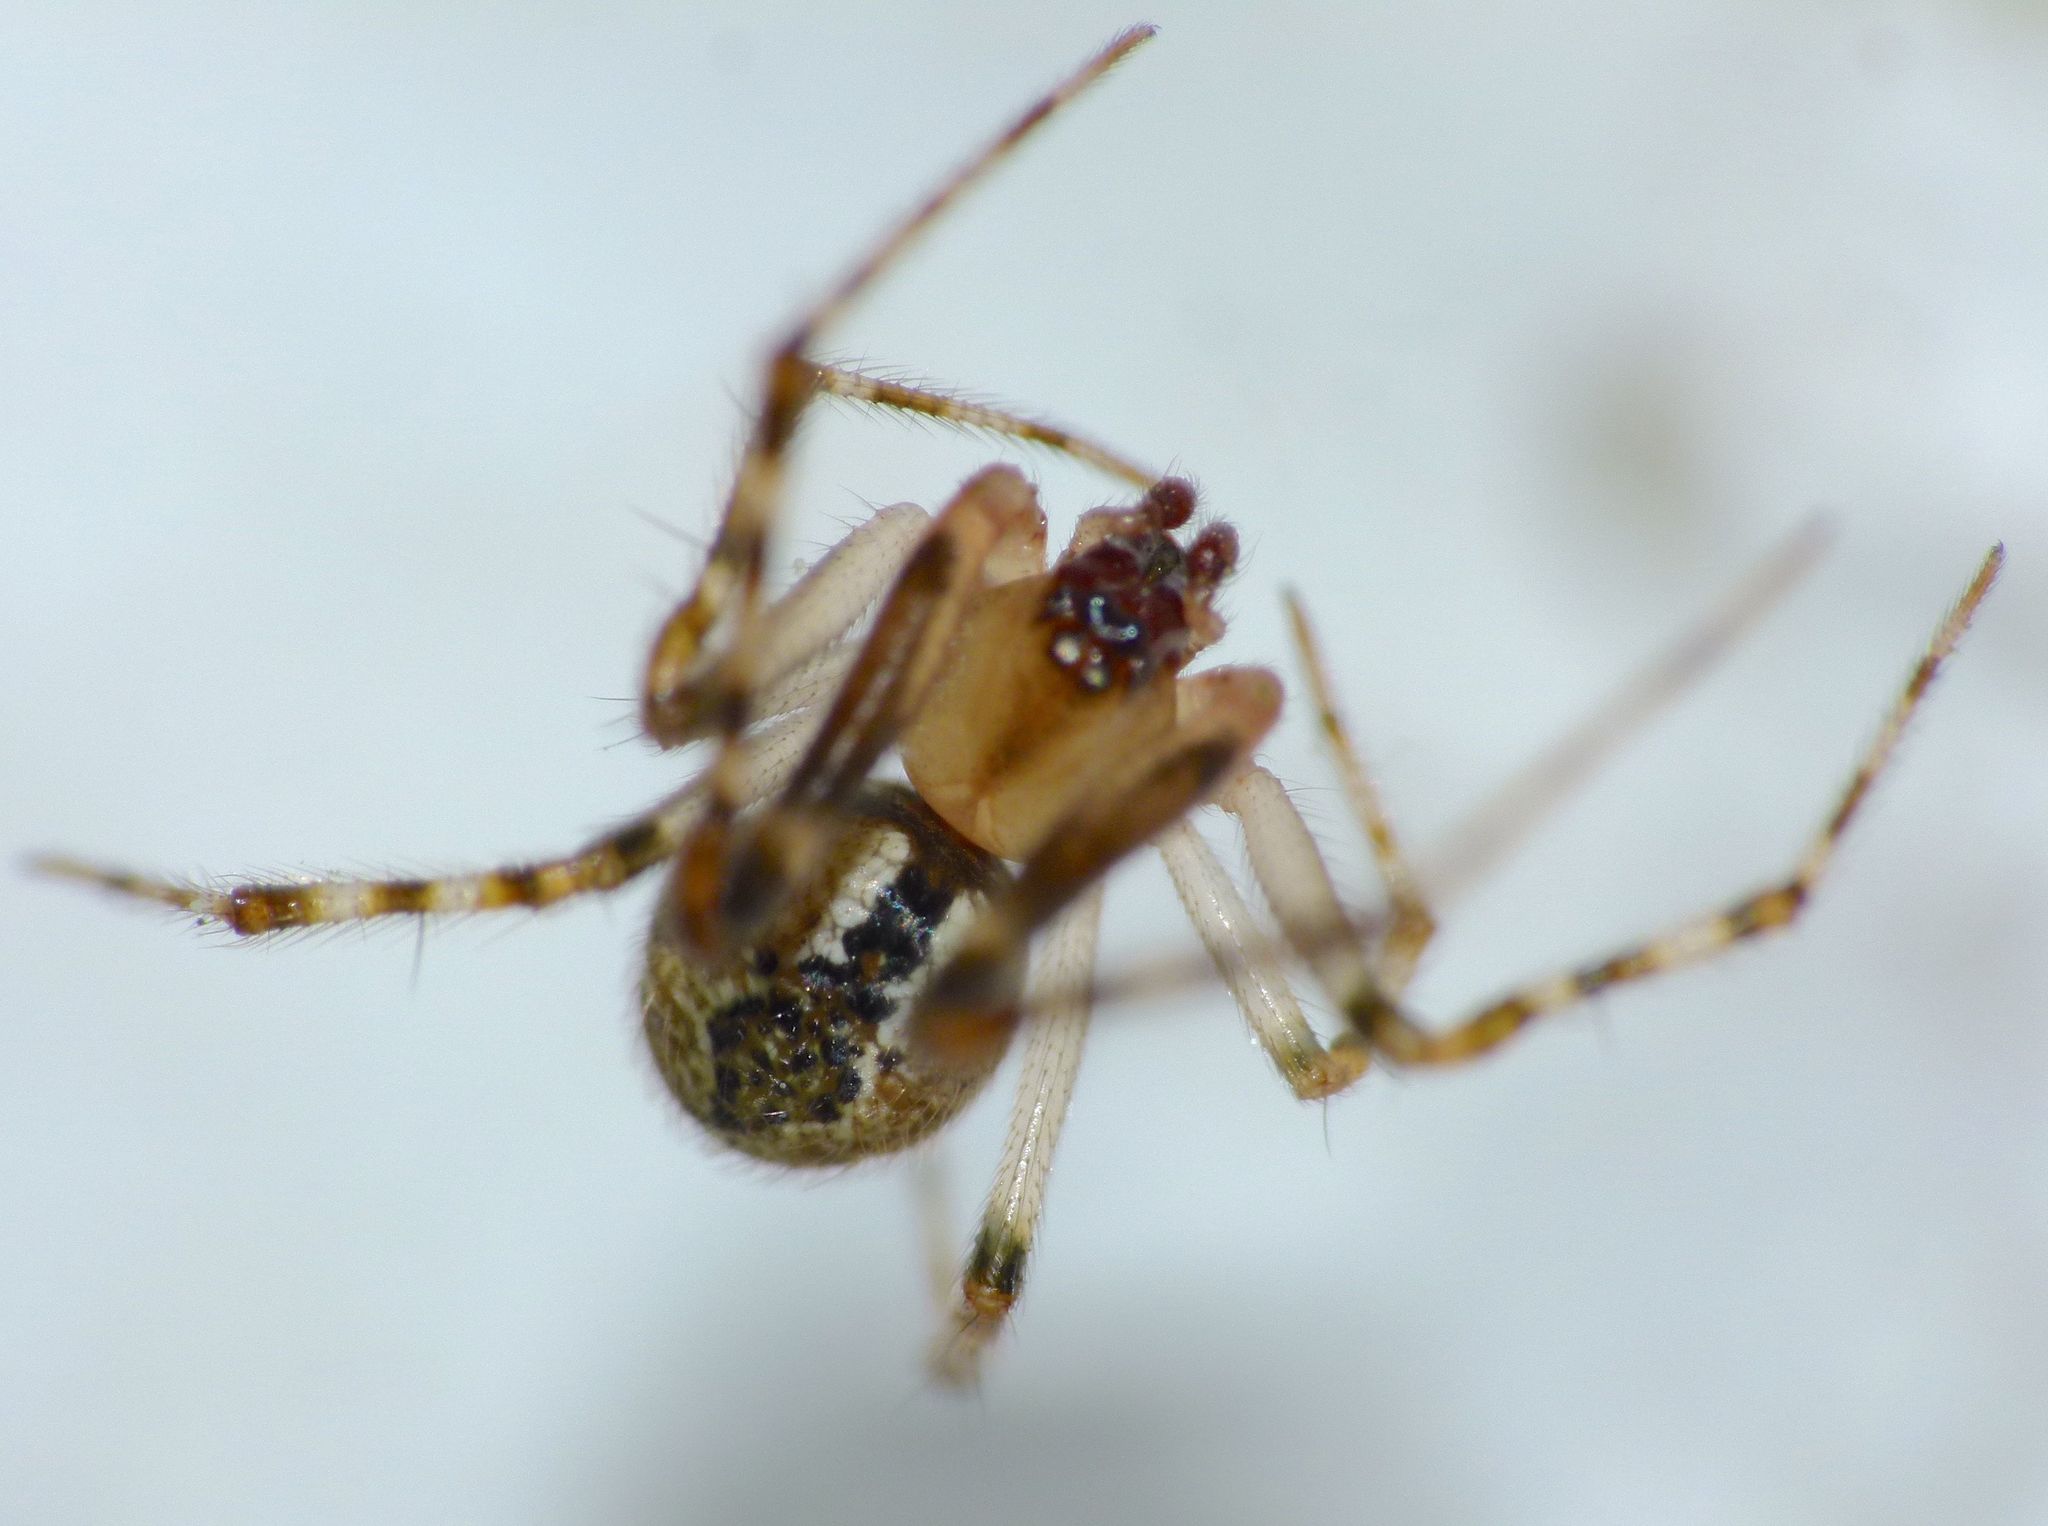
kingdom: Animalia
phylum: Arthropoda
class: Arachnida
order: Araneae
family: Theridiidae
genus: Cryptachaea
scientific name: Cryptachaea veruculata
